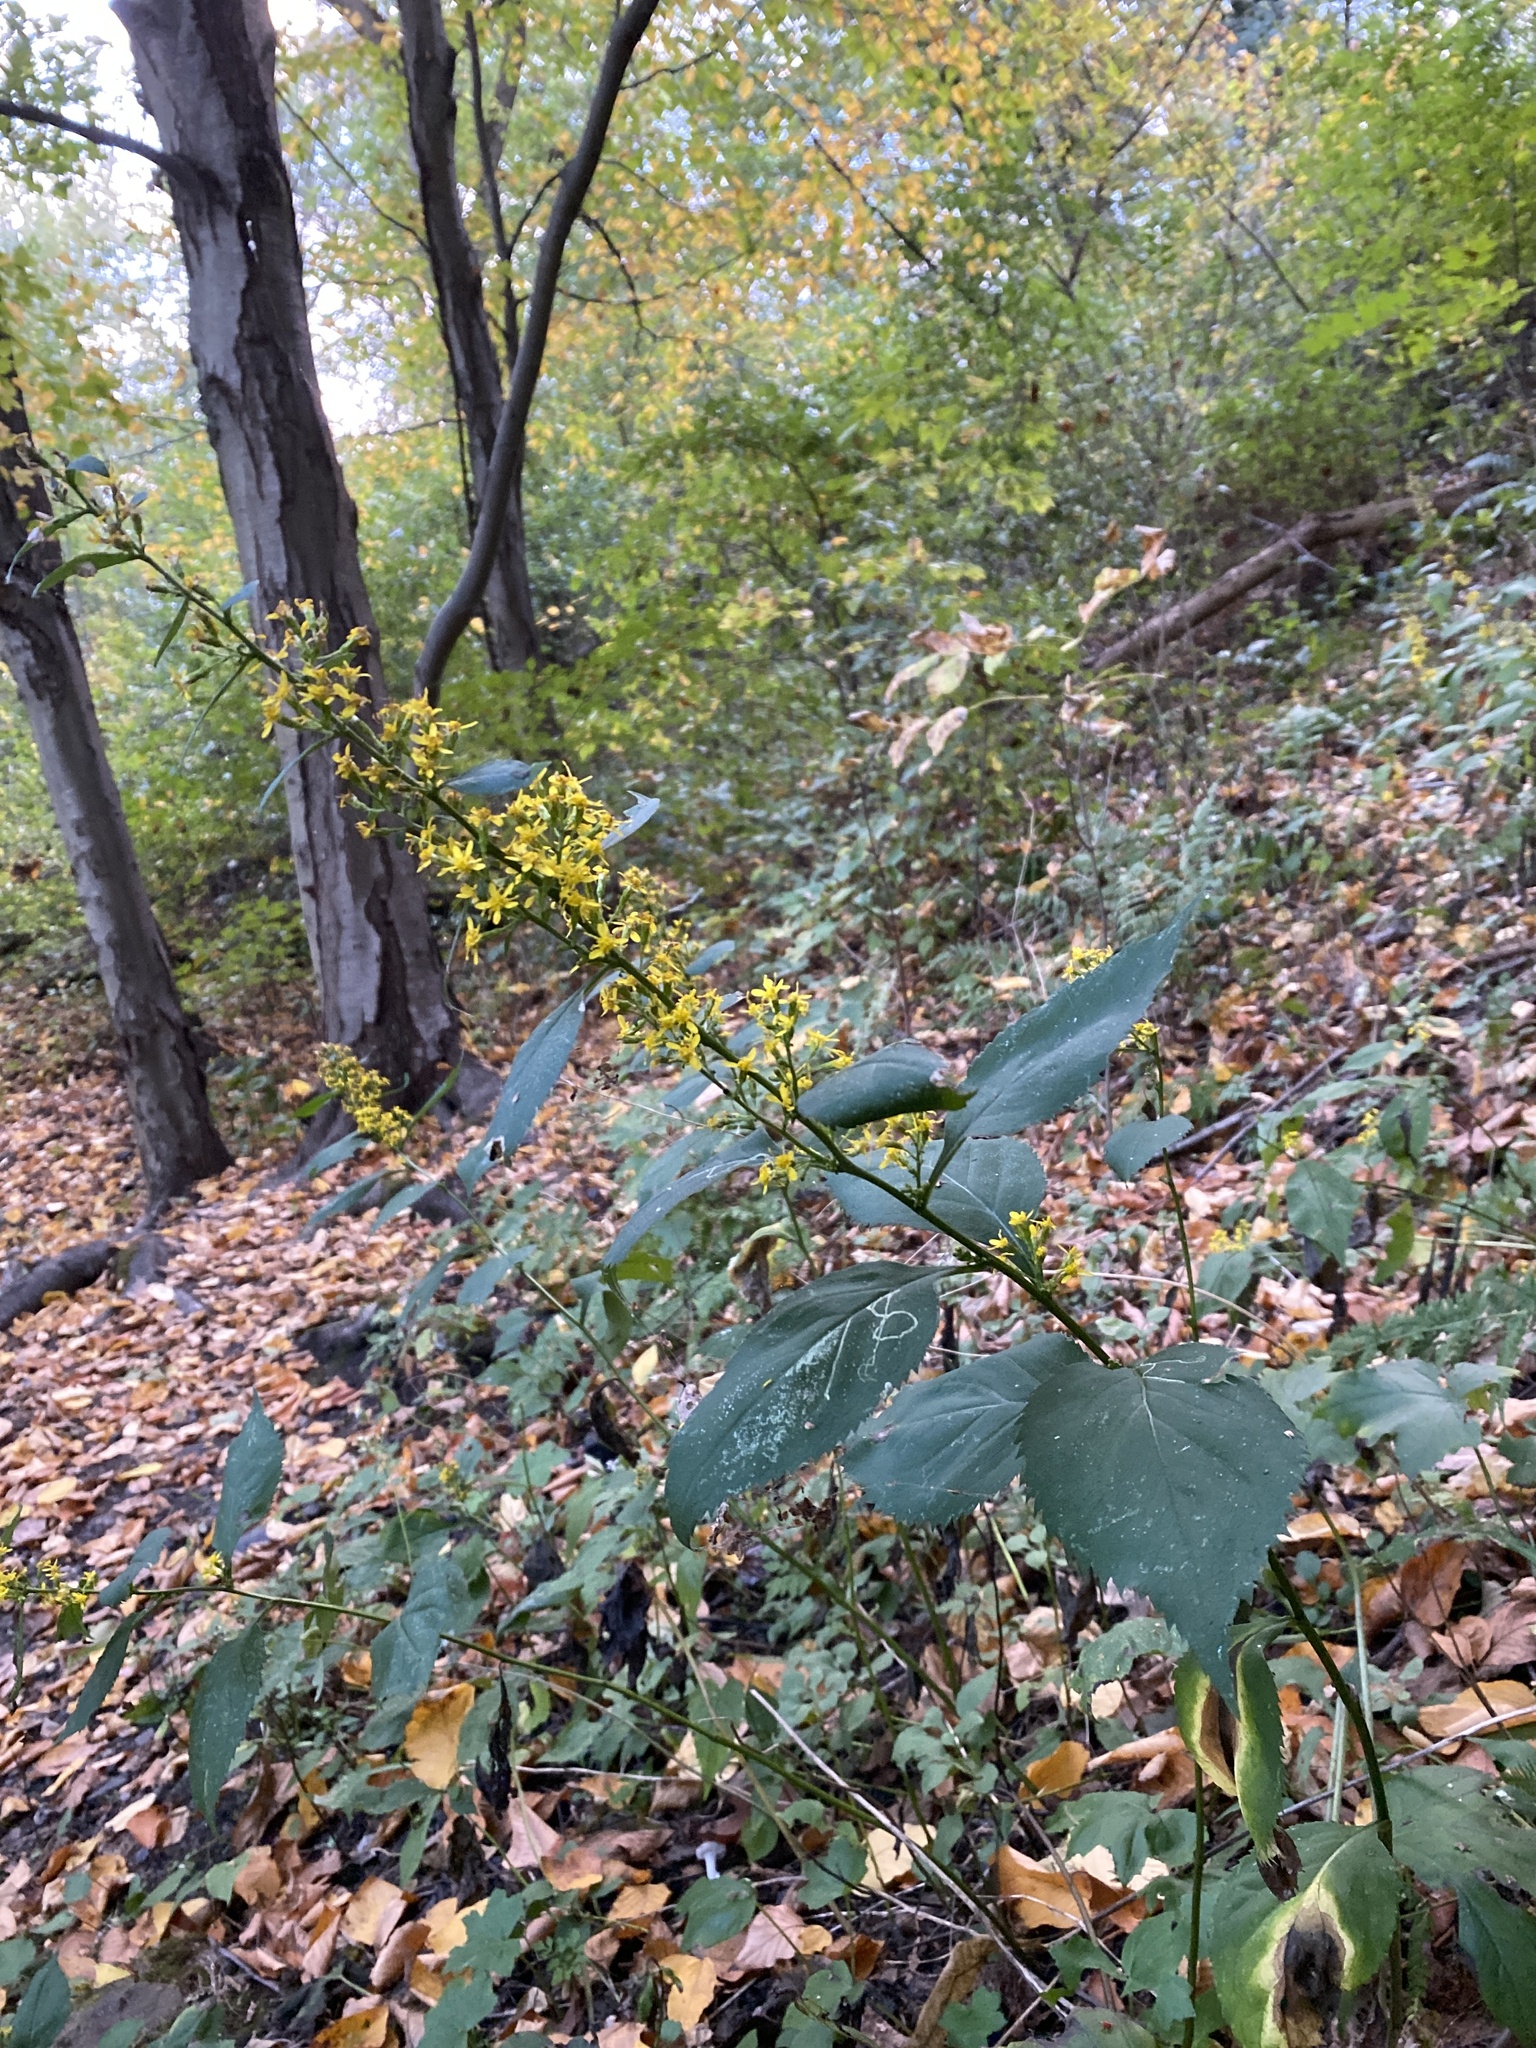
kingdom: Plantae
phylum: Tracheophyta
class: Magnoliopsida
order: Asterales
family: Asteraceae
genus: Solidago
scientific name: Solidago flexicaulis
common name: Zig-zag goldenrod
